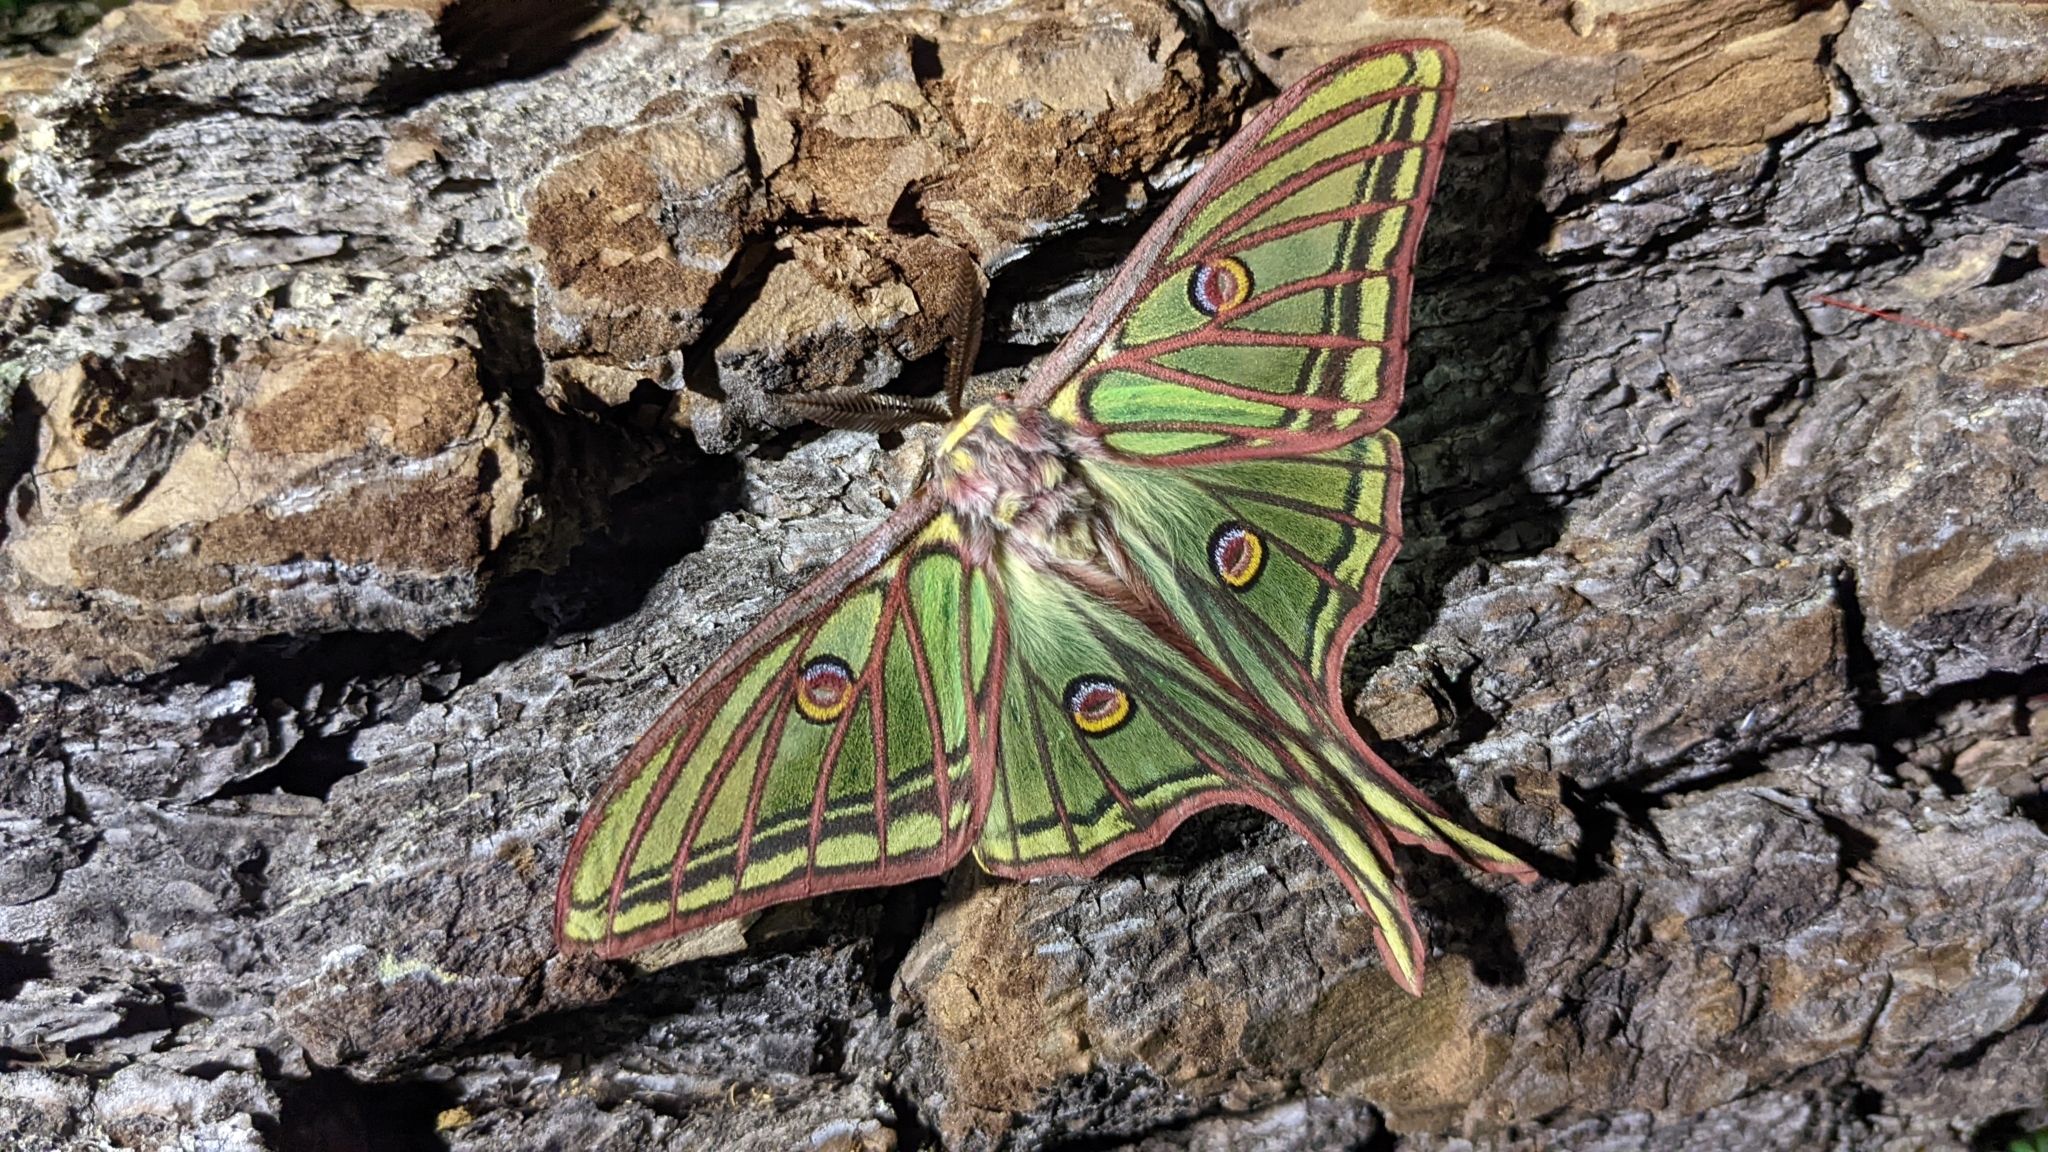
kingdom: Animalia
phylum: Arthropoda
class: Insecta
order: Lepidoptera
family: Saturniidae
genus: Graellsia
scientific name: Graellsia isabellae
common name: Spanish moon moth
